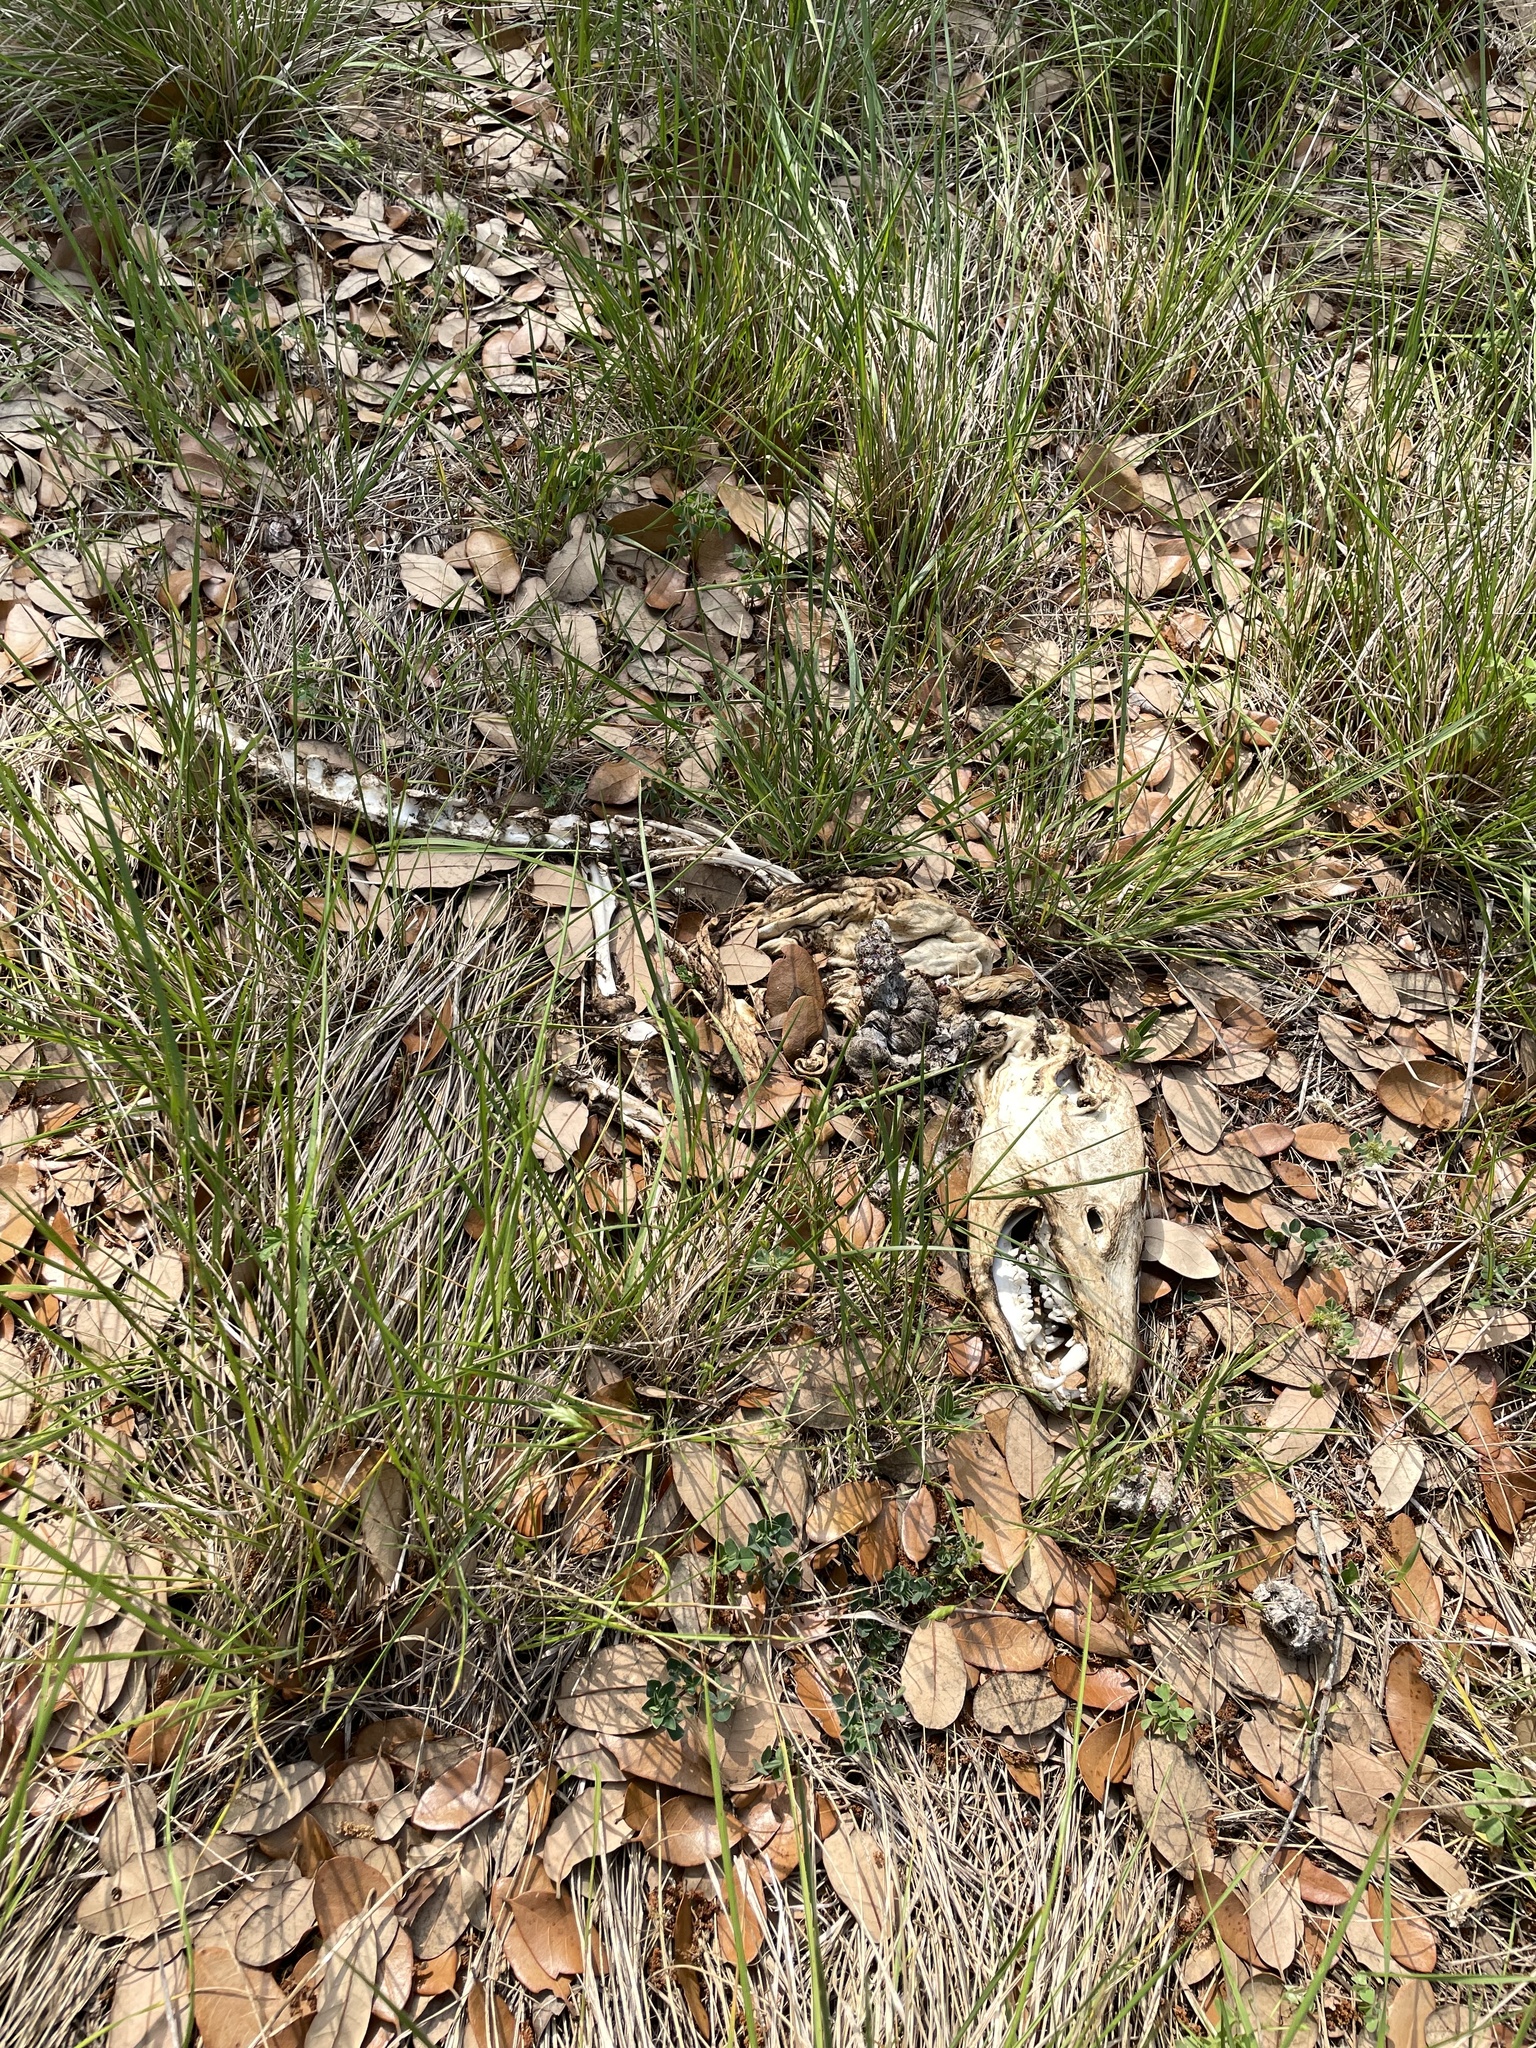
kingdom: Animalia
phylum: Chordata
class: Mammalia
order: Didelphimorphia
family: Didelphidae
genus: Didelphis
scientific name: Didelphis virginiana
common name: Virginia opossum
